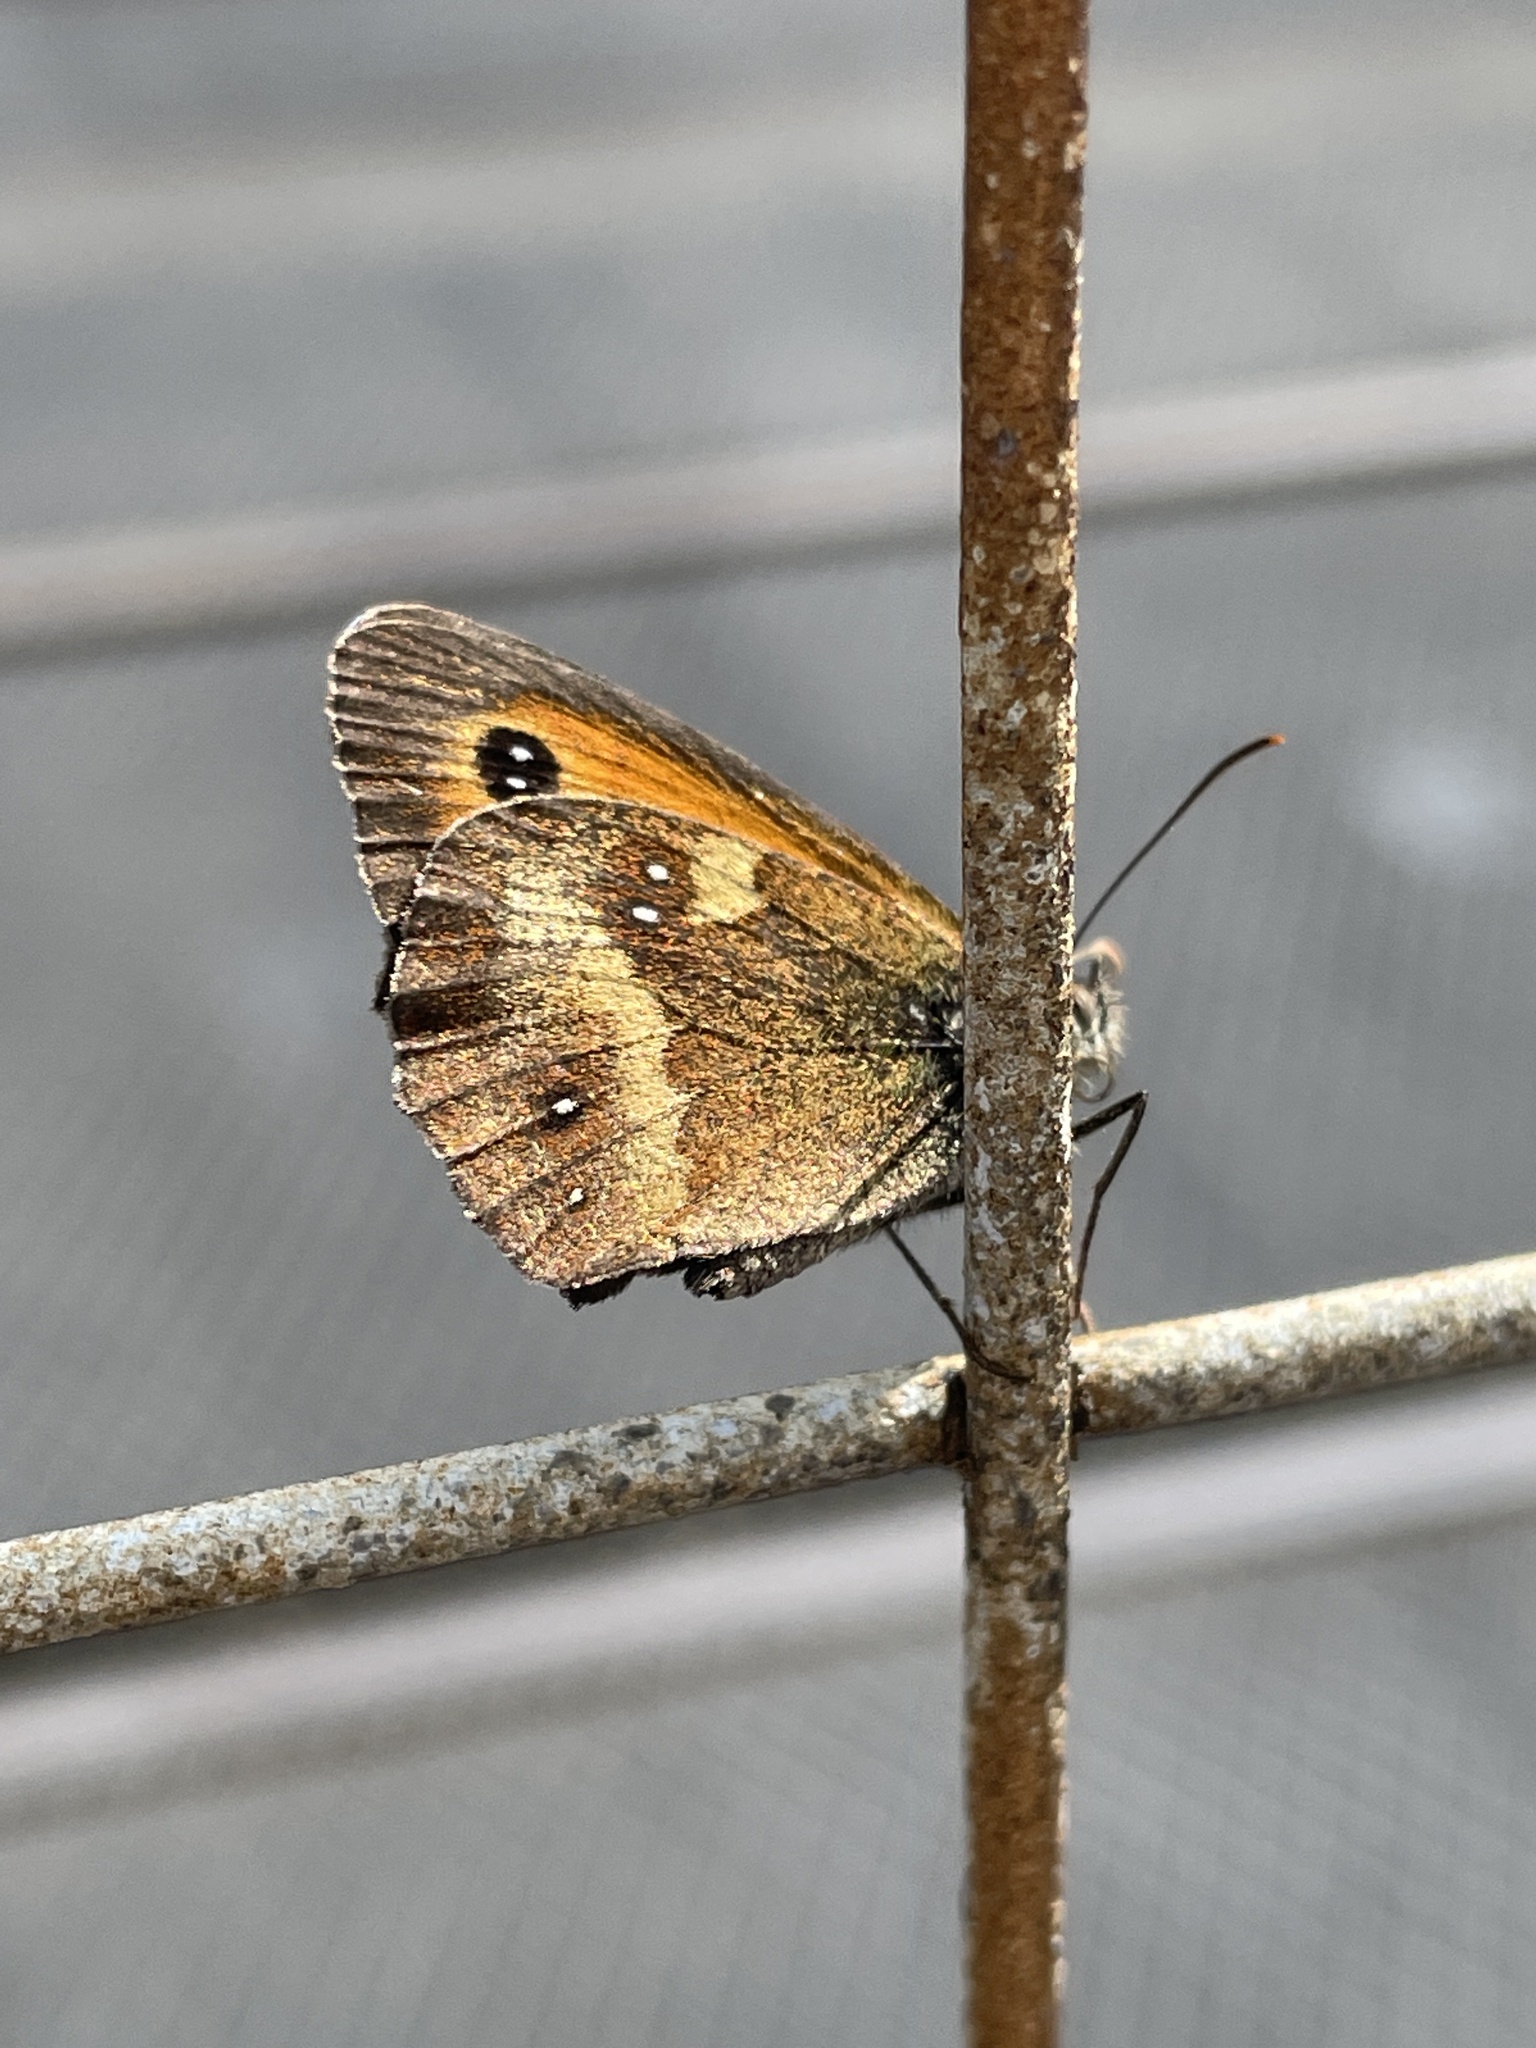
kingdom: Animalia
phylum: Arthropoda
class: Insecta
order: Lepidoptera
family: Nymphalidae
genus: Pyronia
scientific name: Pyronia tithonus
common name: Gatekeeper
